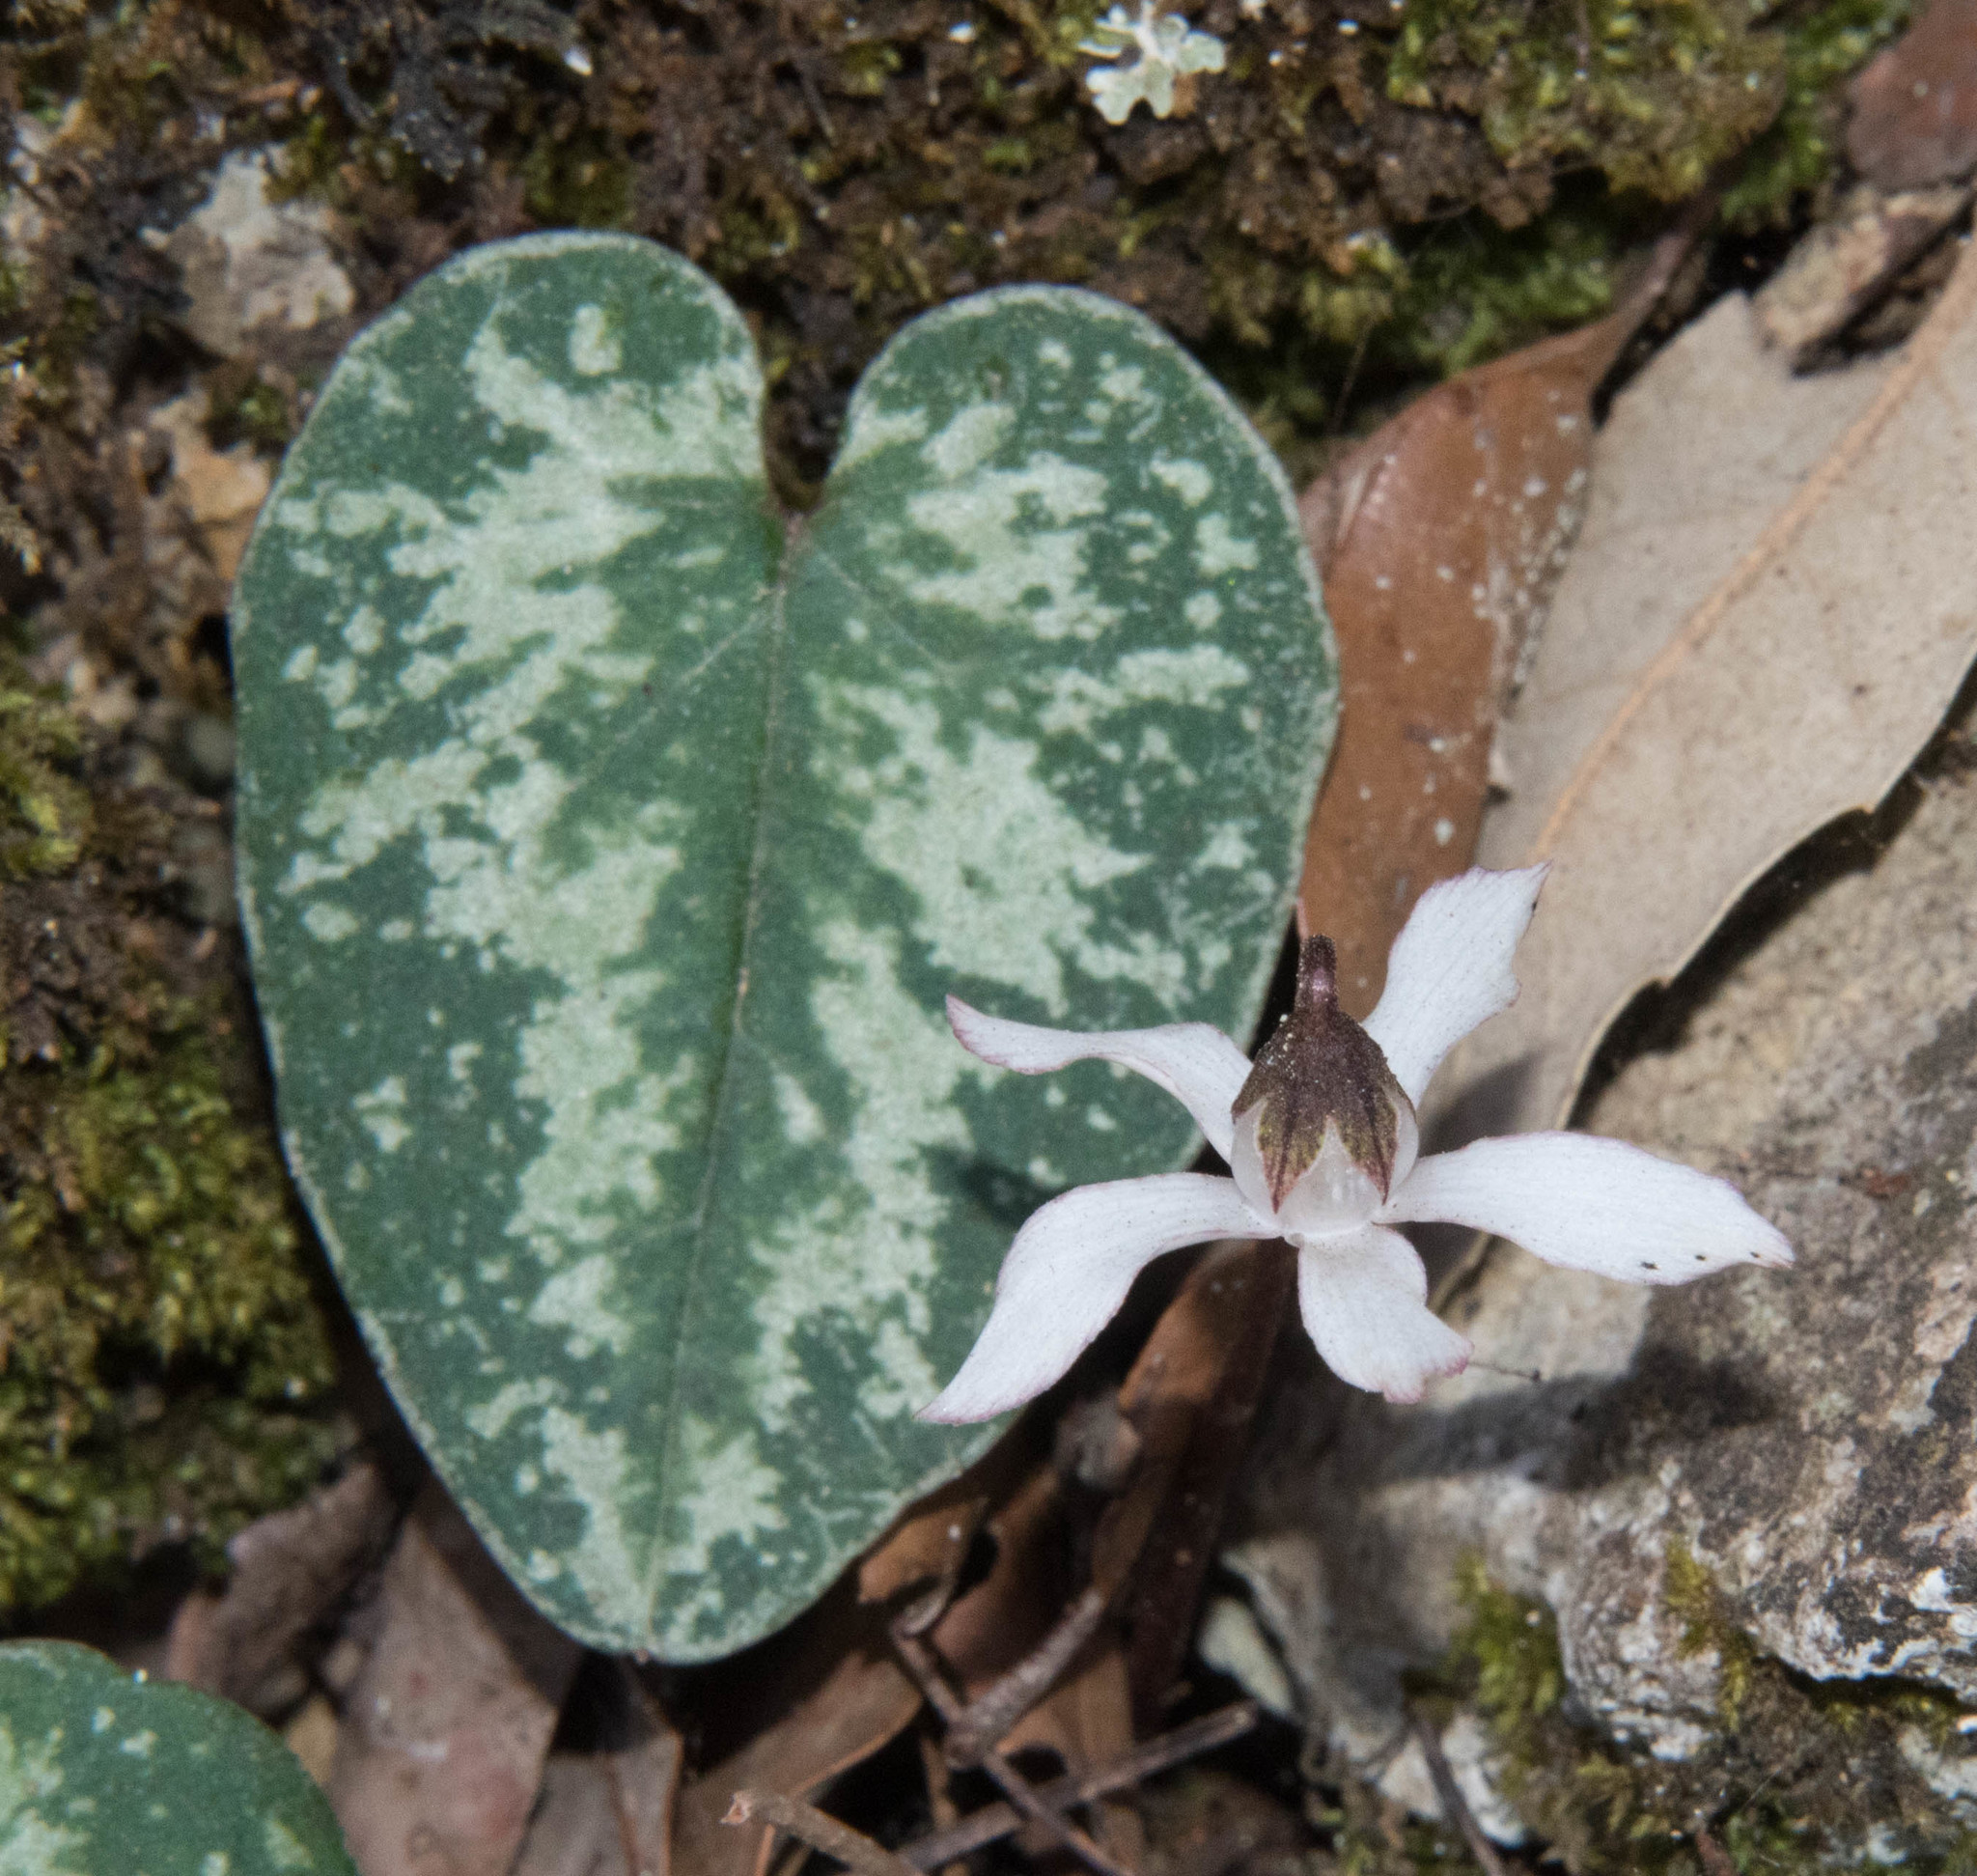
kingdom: Plantae
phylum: Tracheophyta
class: Magnoliopsida
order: Ericales
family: Primulaceae
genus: Cyclamen
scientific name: Cyclamen balearicum
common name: Majorca cyclamen
